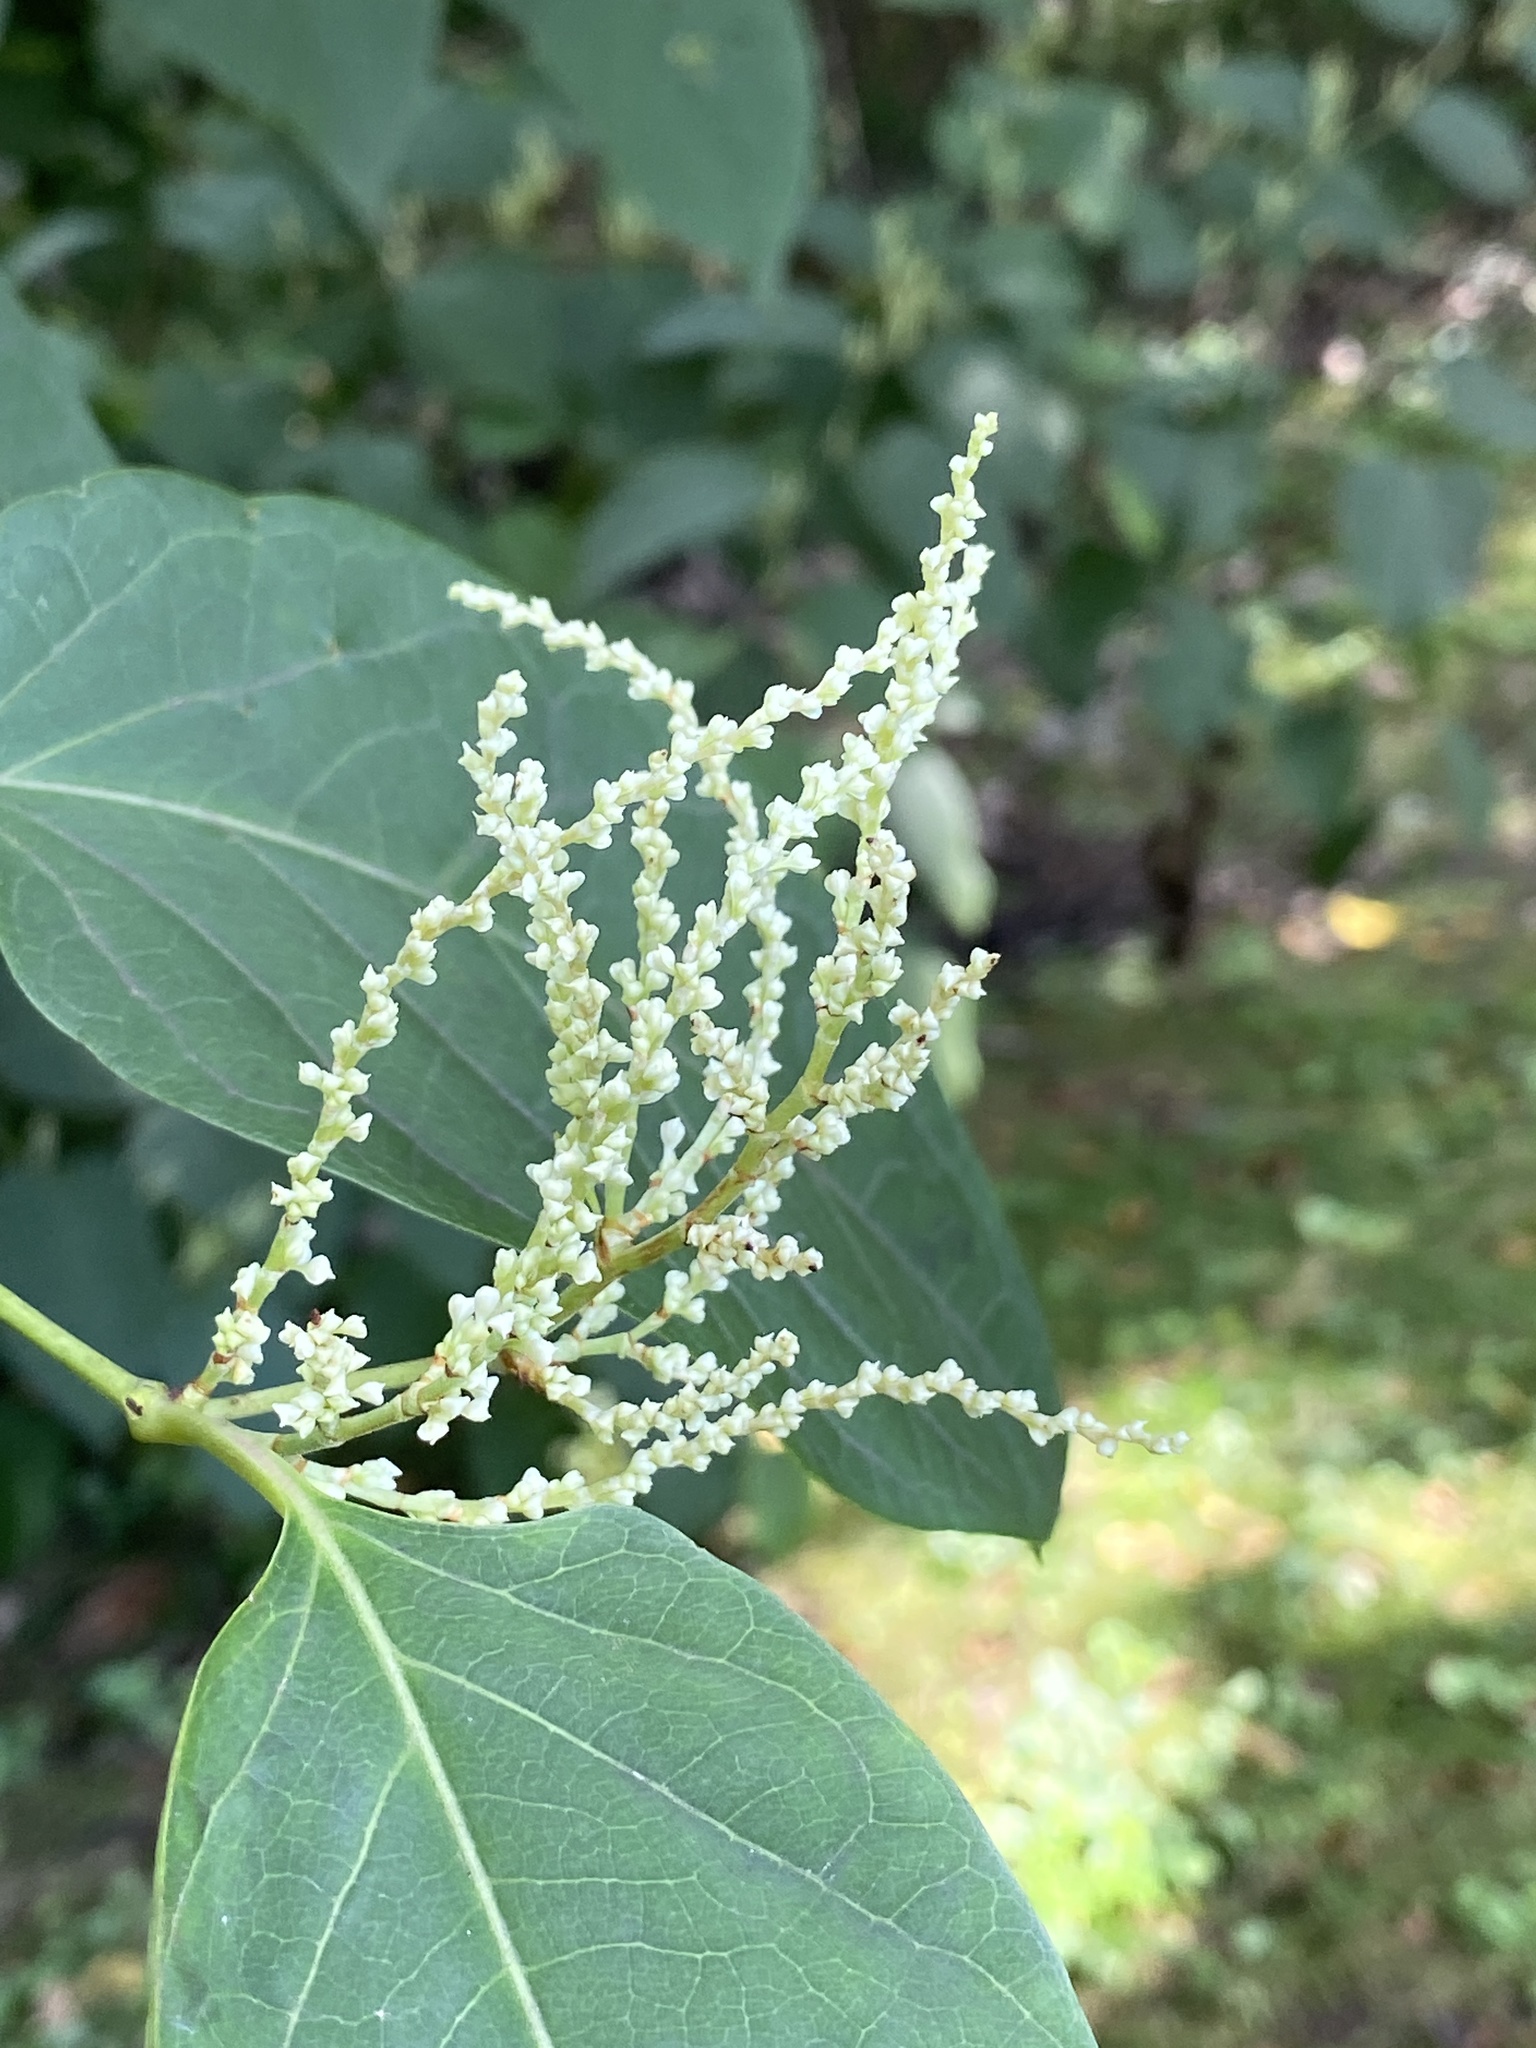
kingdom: Plantae
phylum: Tracheophyta
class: Magnoliopsida
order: Caryophyllales
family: Polygonaceae
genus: Reynoutria
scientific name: Reynoutria japonica
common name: Japanese knotweed
